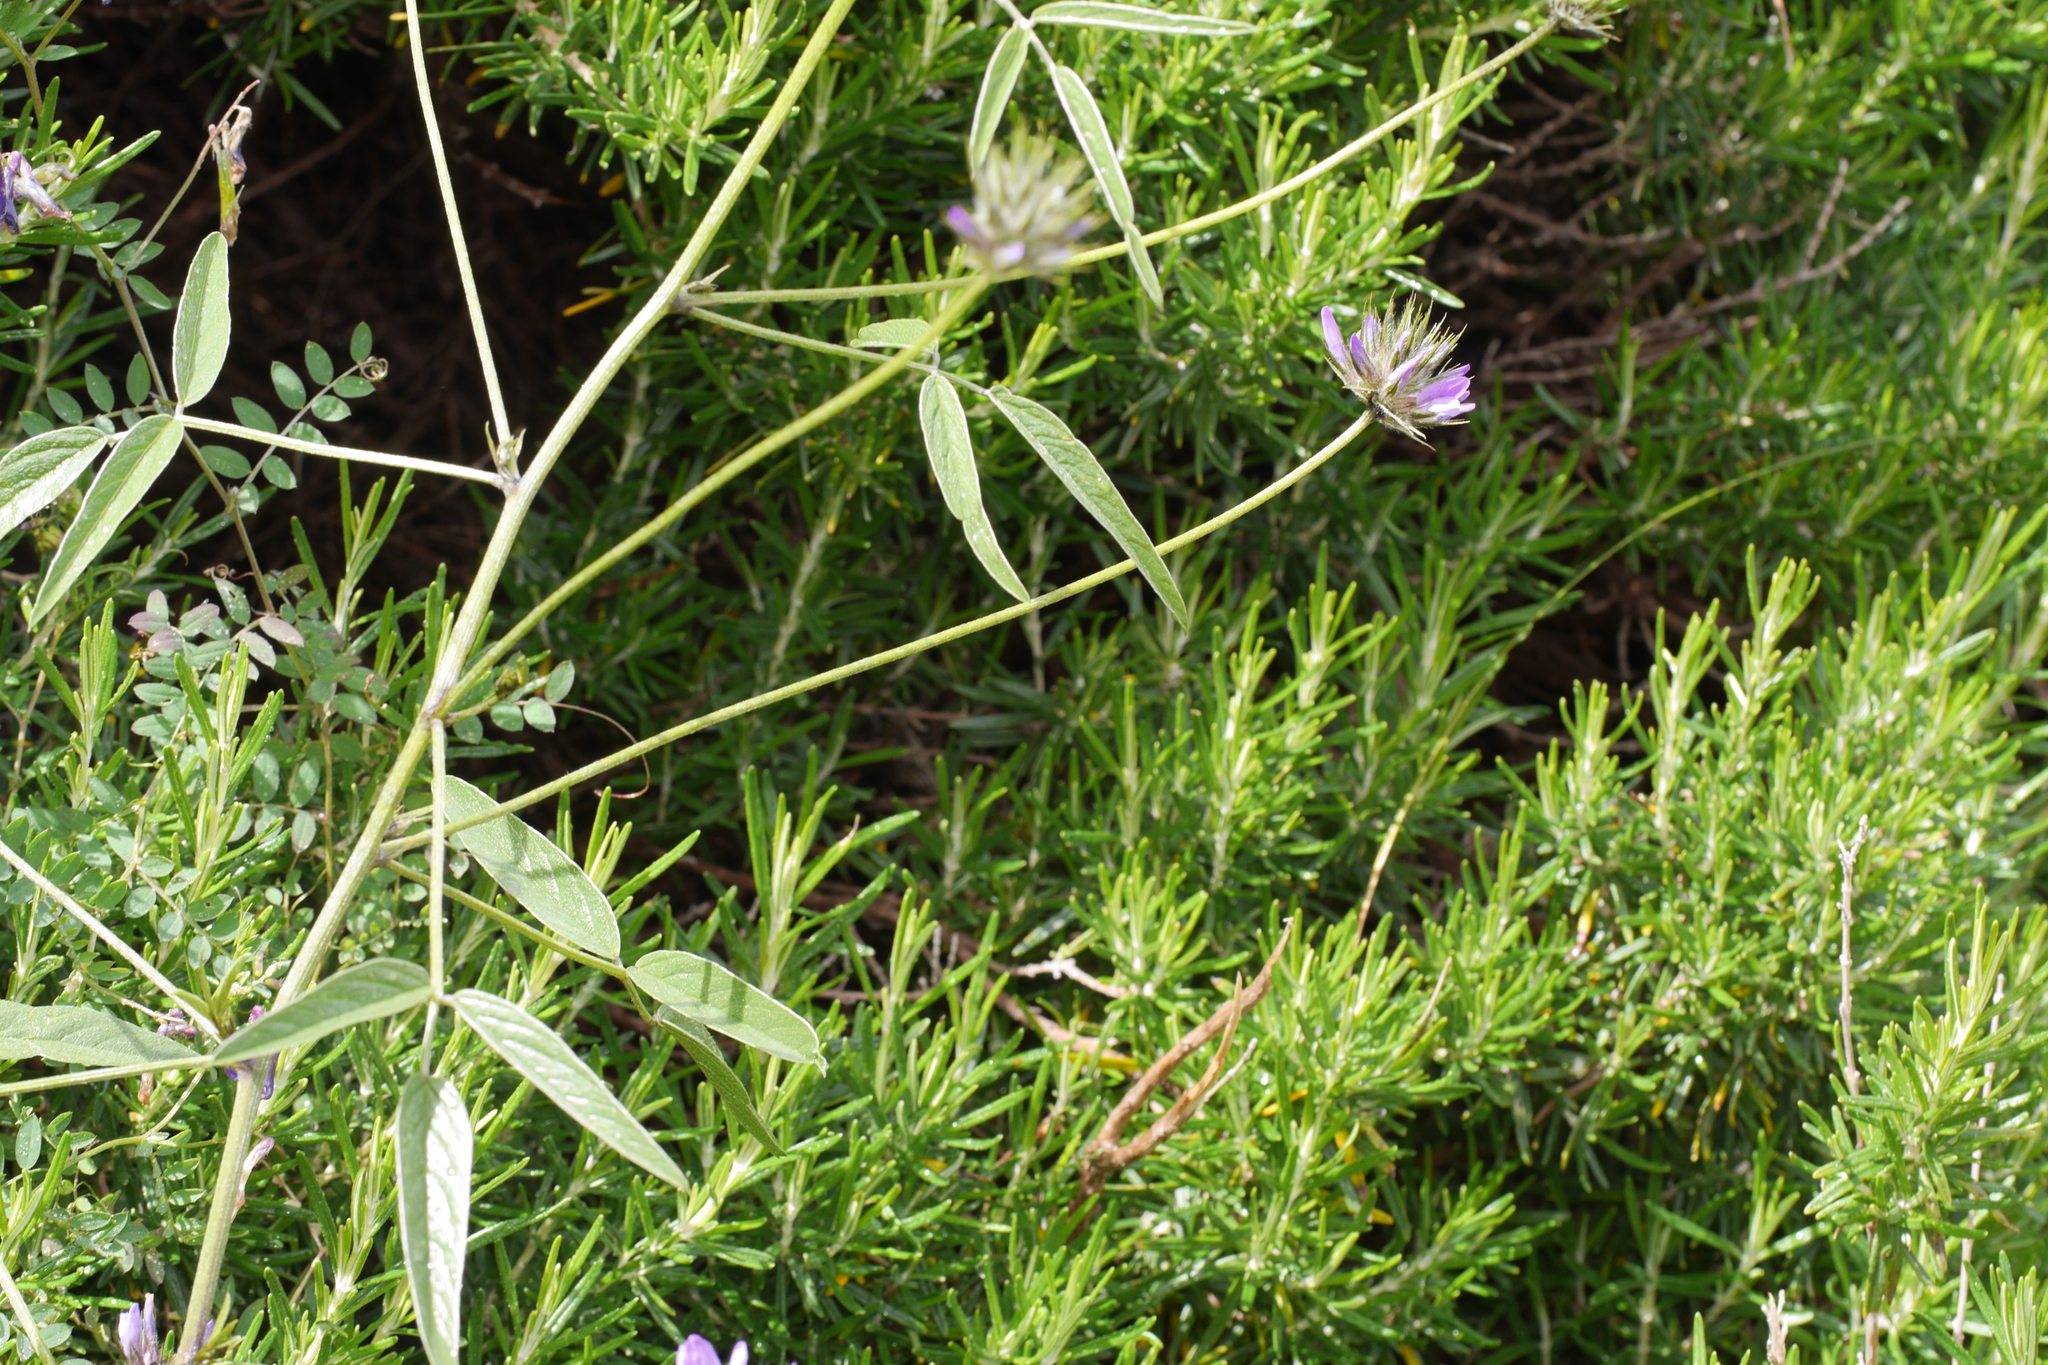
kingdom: Plantae
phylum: Tracheophyta
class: Magnoliopsida
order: Fabales
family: Fabaceae
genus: Bituminaria
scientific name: Bituminaria bituminosa
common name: Arabian pea
